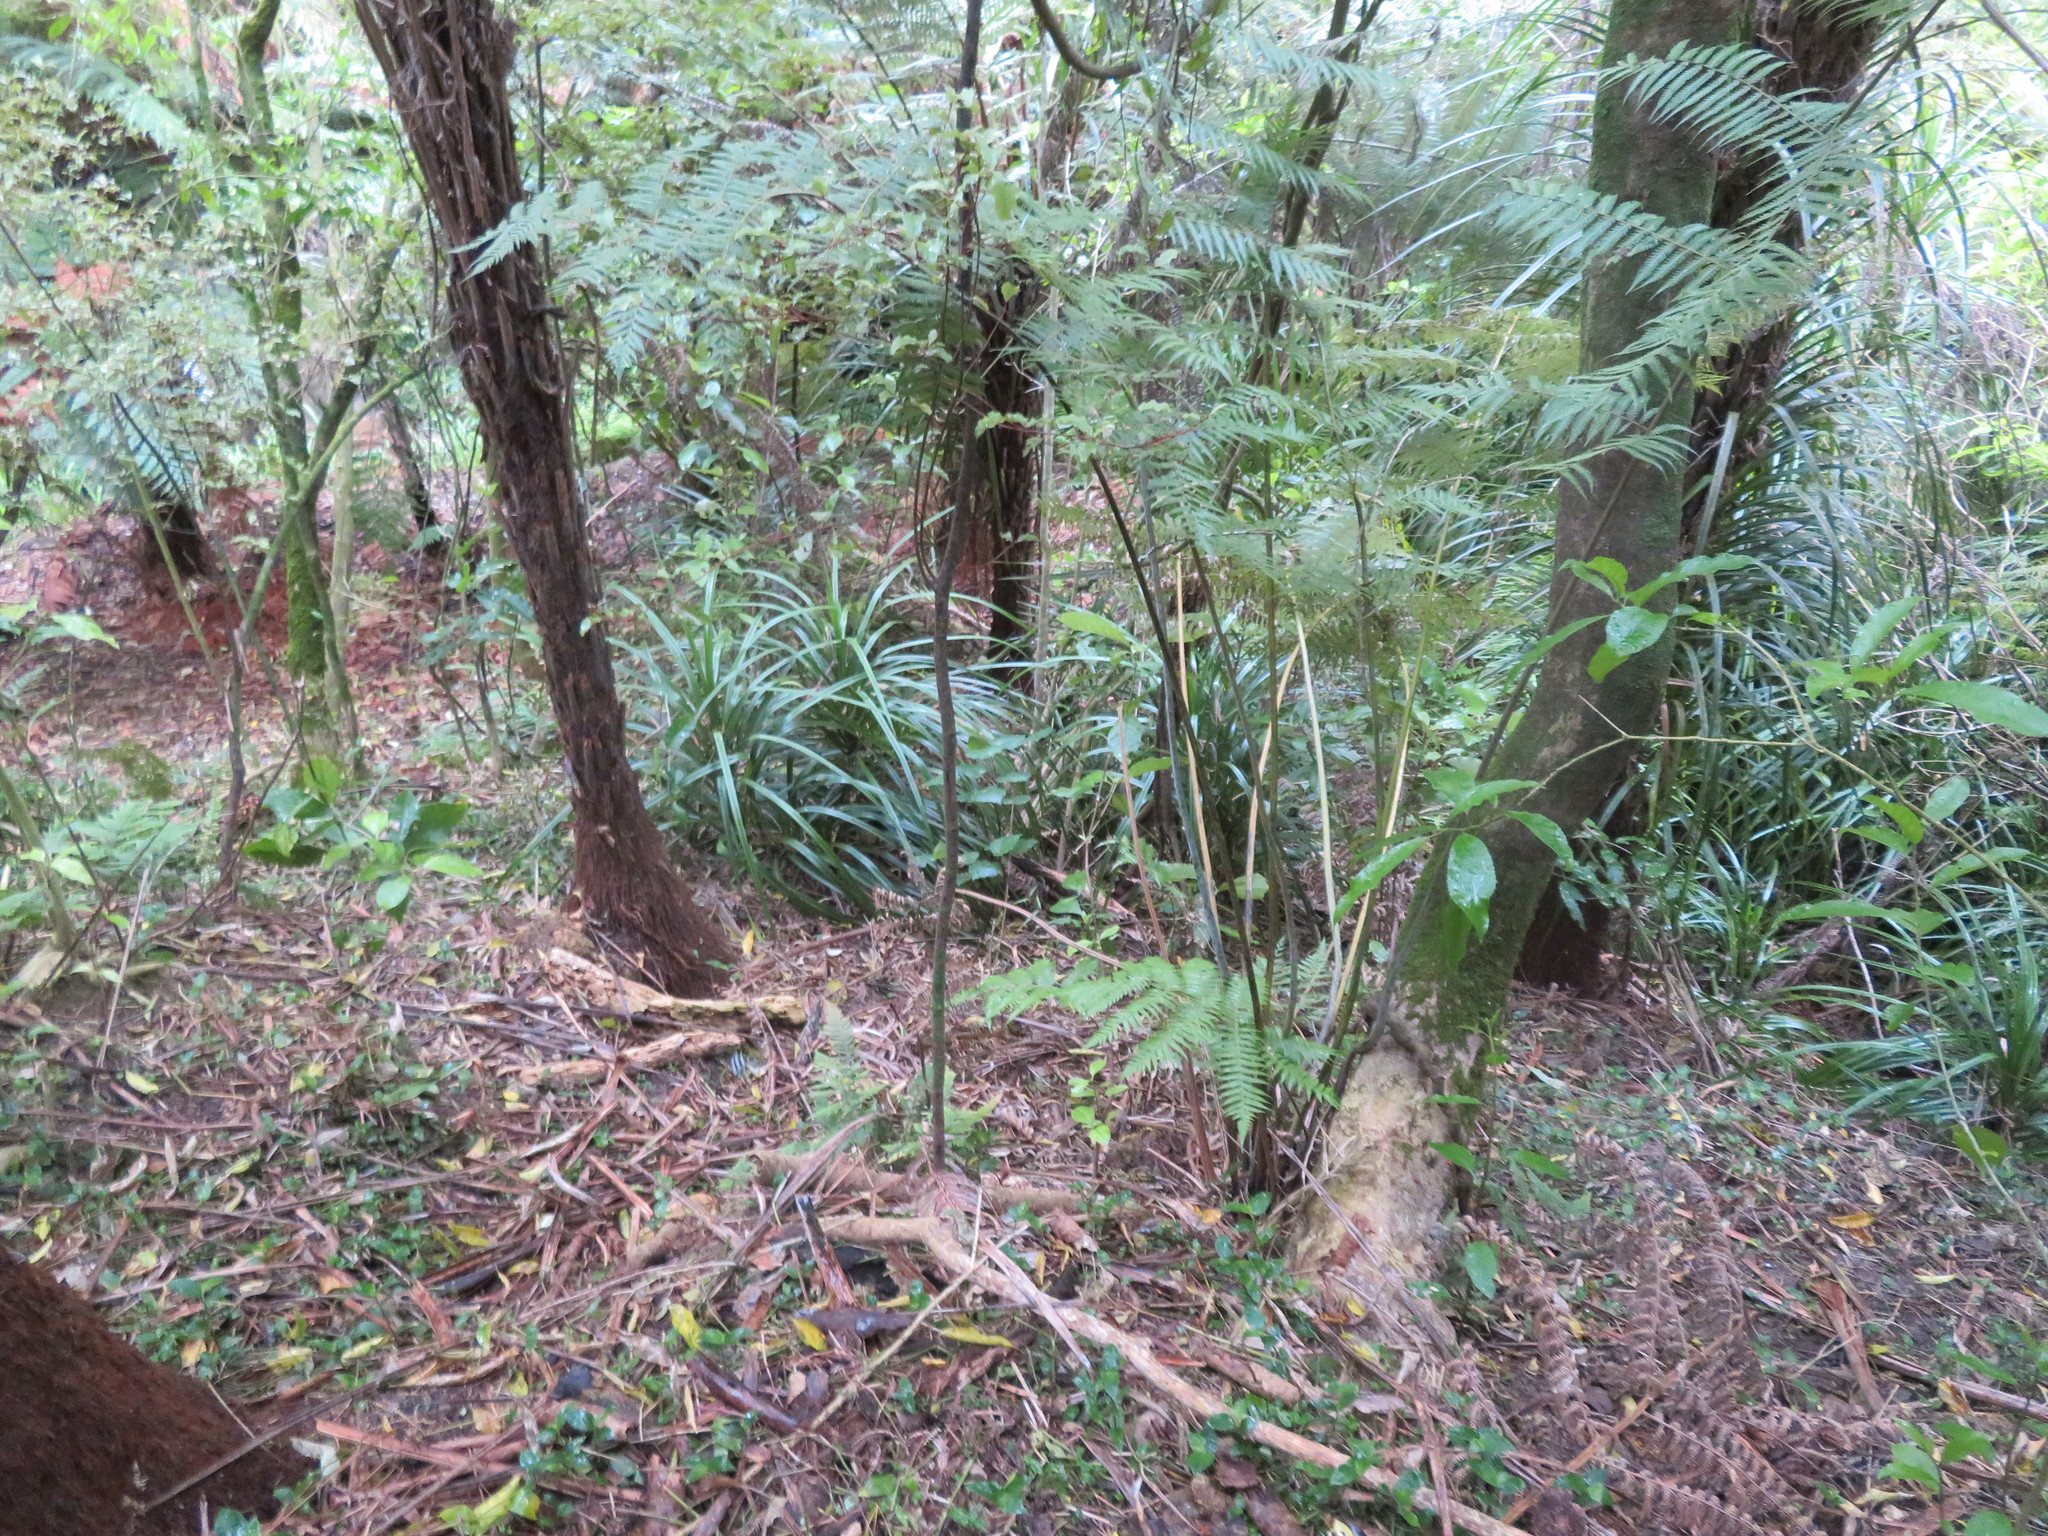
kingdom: Plantae
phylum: Tracheophyta
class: Polypodiopsida
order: Cyatheales
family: Cyatheaceae
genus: Alsophila
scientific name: Alsophila dealbata
